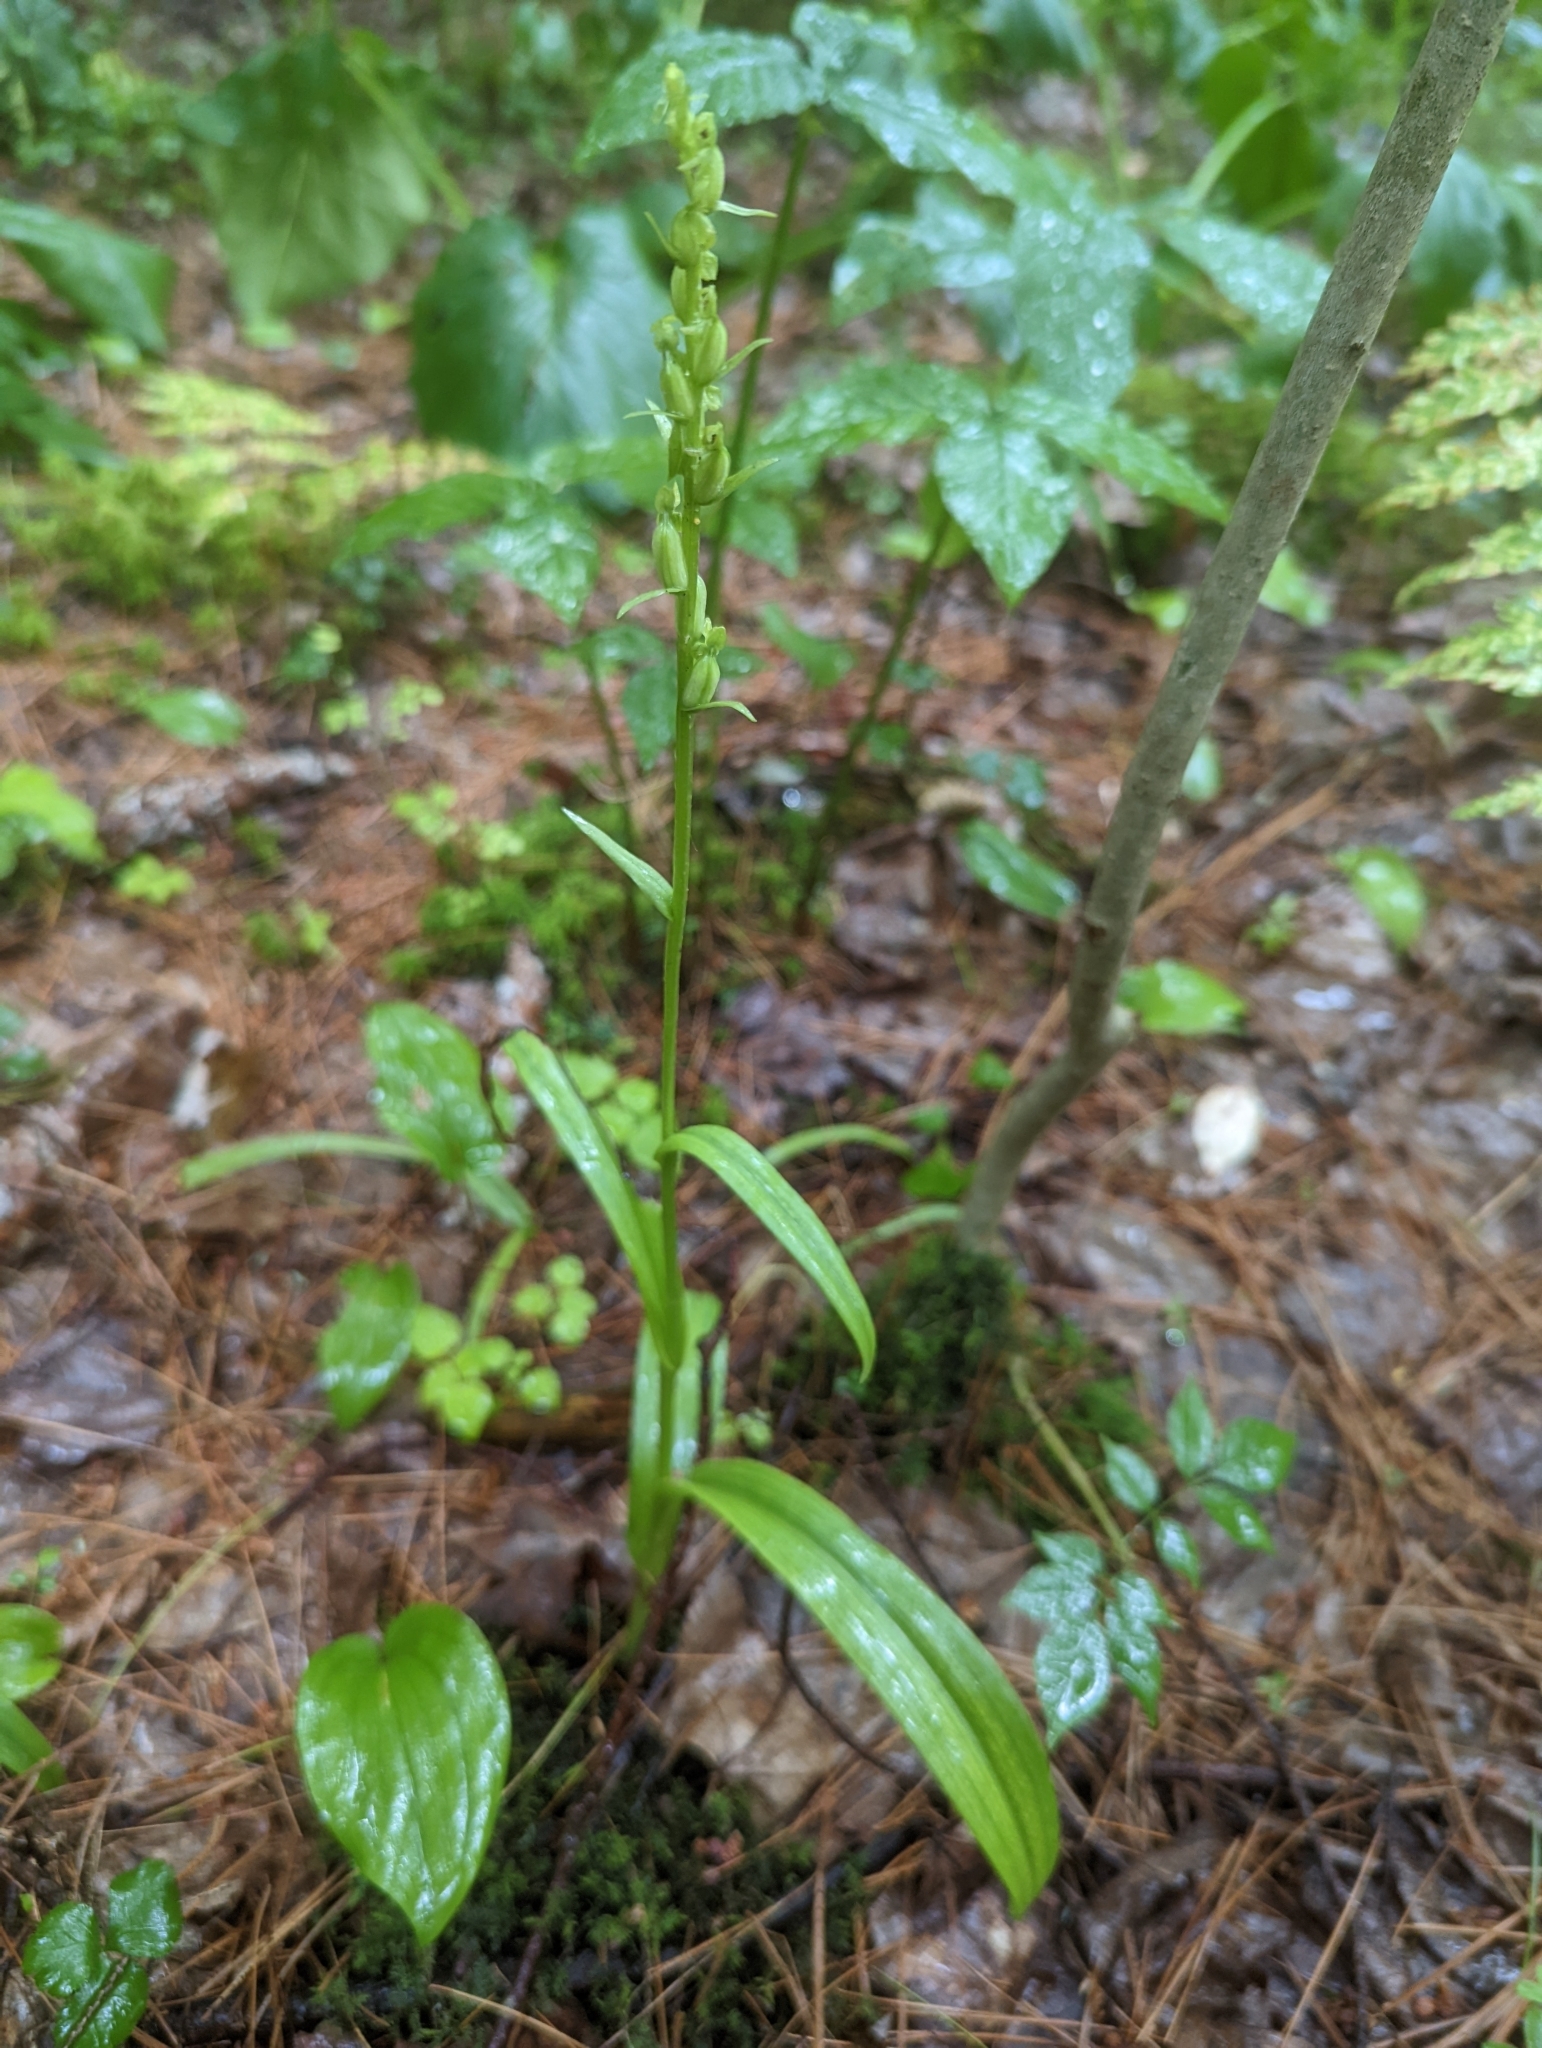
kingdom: Plantae
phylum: Tracheophyta
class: Liliopsida
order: Asparagales
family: Orchidaceae
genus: Platanthera
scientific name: Platanthera aquilonis
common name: Northern green orchid
